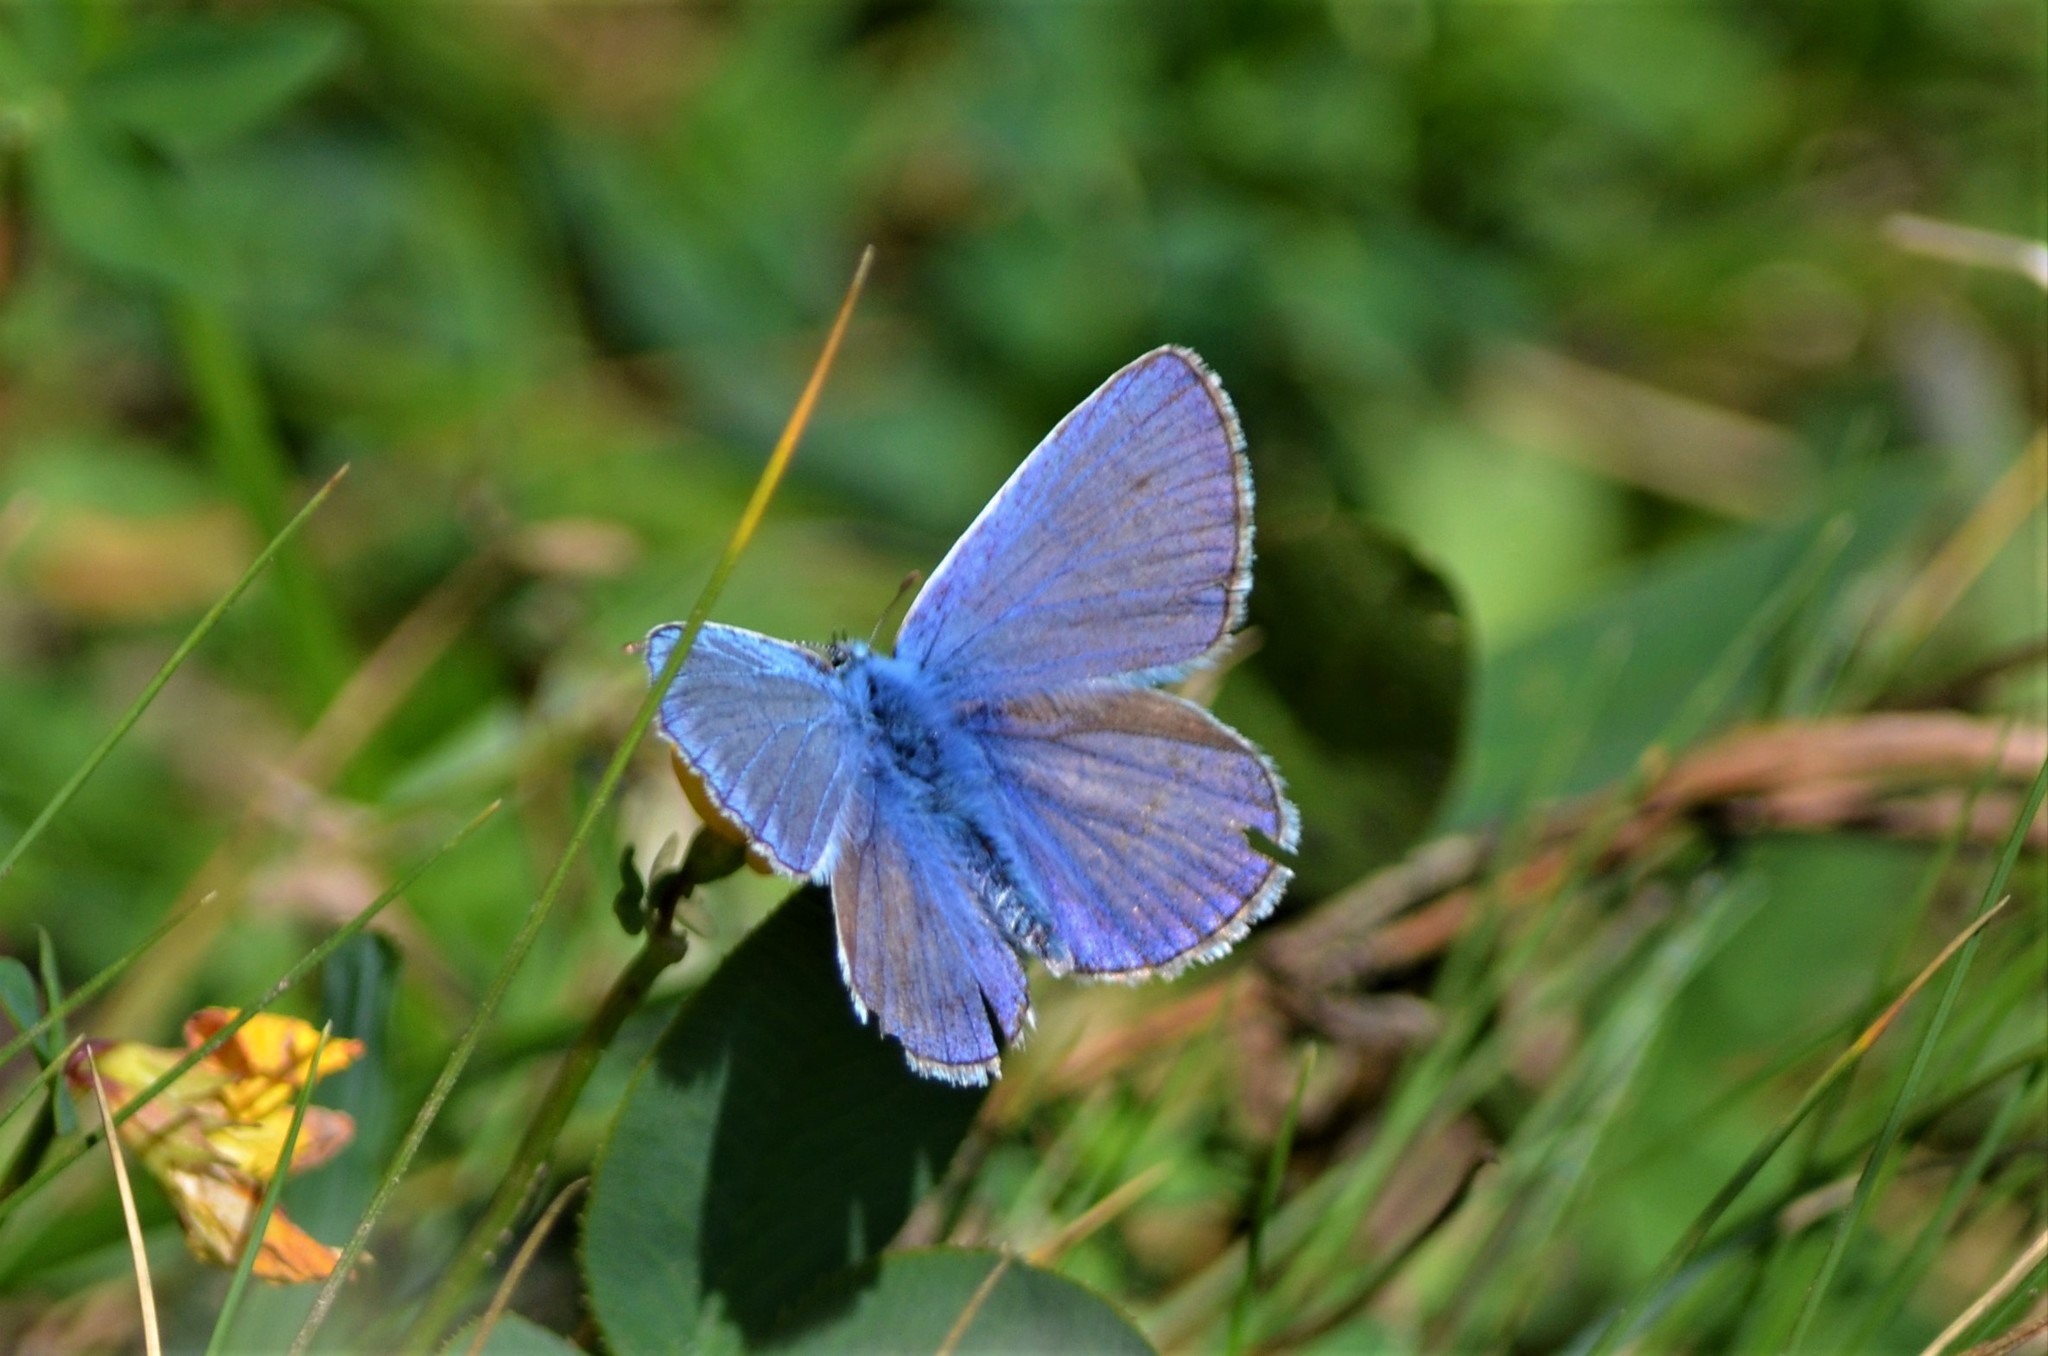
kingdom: Animalia
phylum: Arthropoda
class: Insecta
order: Lepidoptera
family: Lycaenidae
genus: Polyommatus
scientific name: Polyommatus icarus
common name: Common blue
